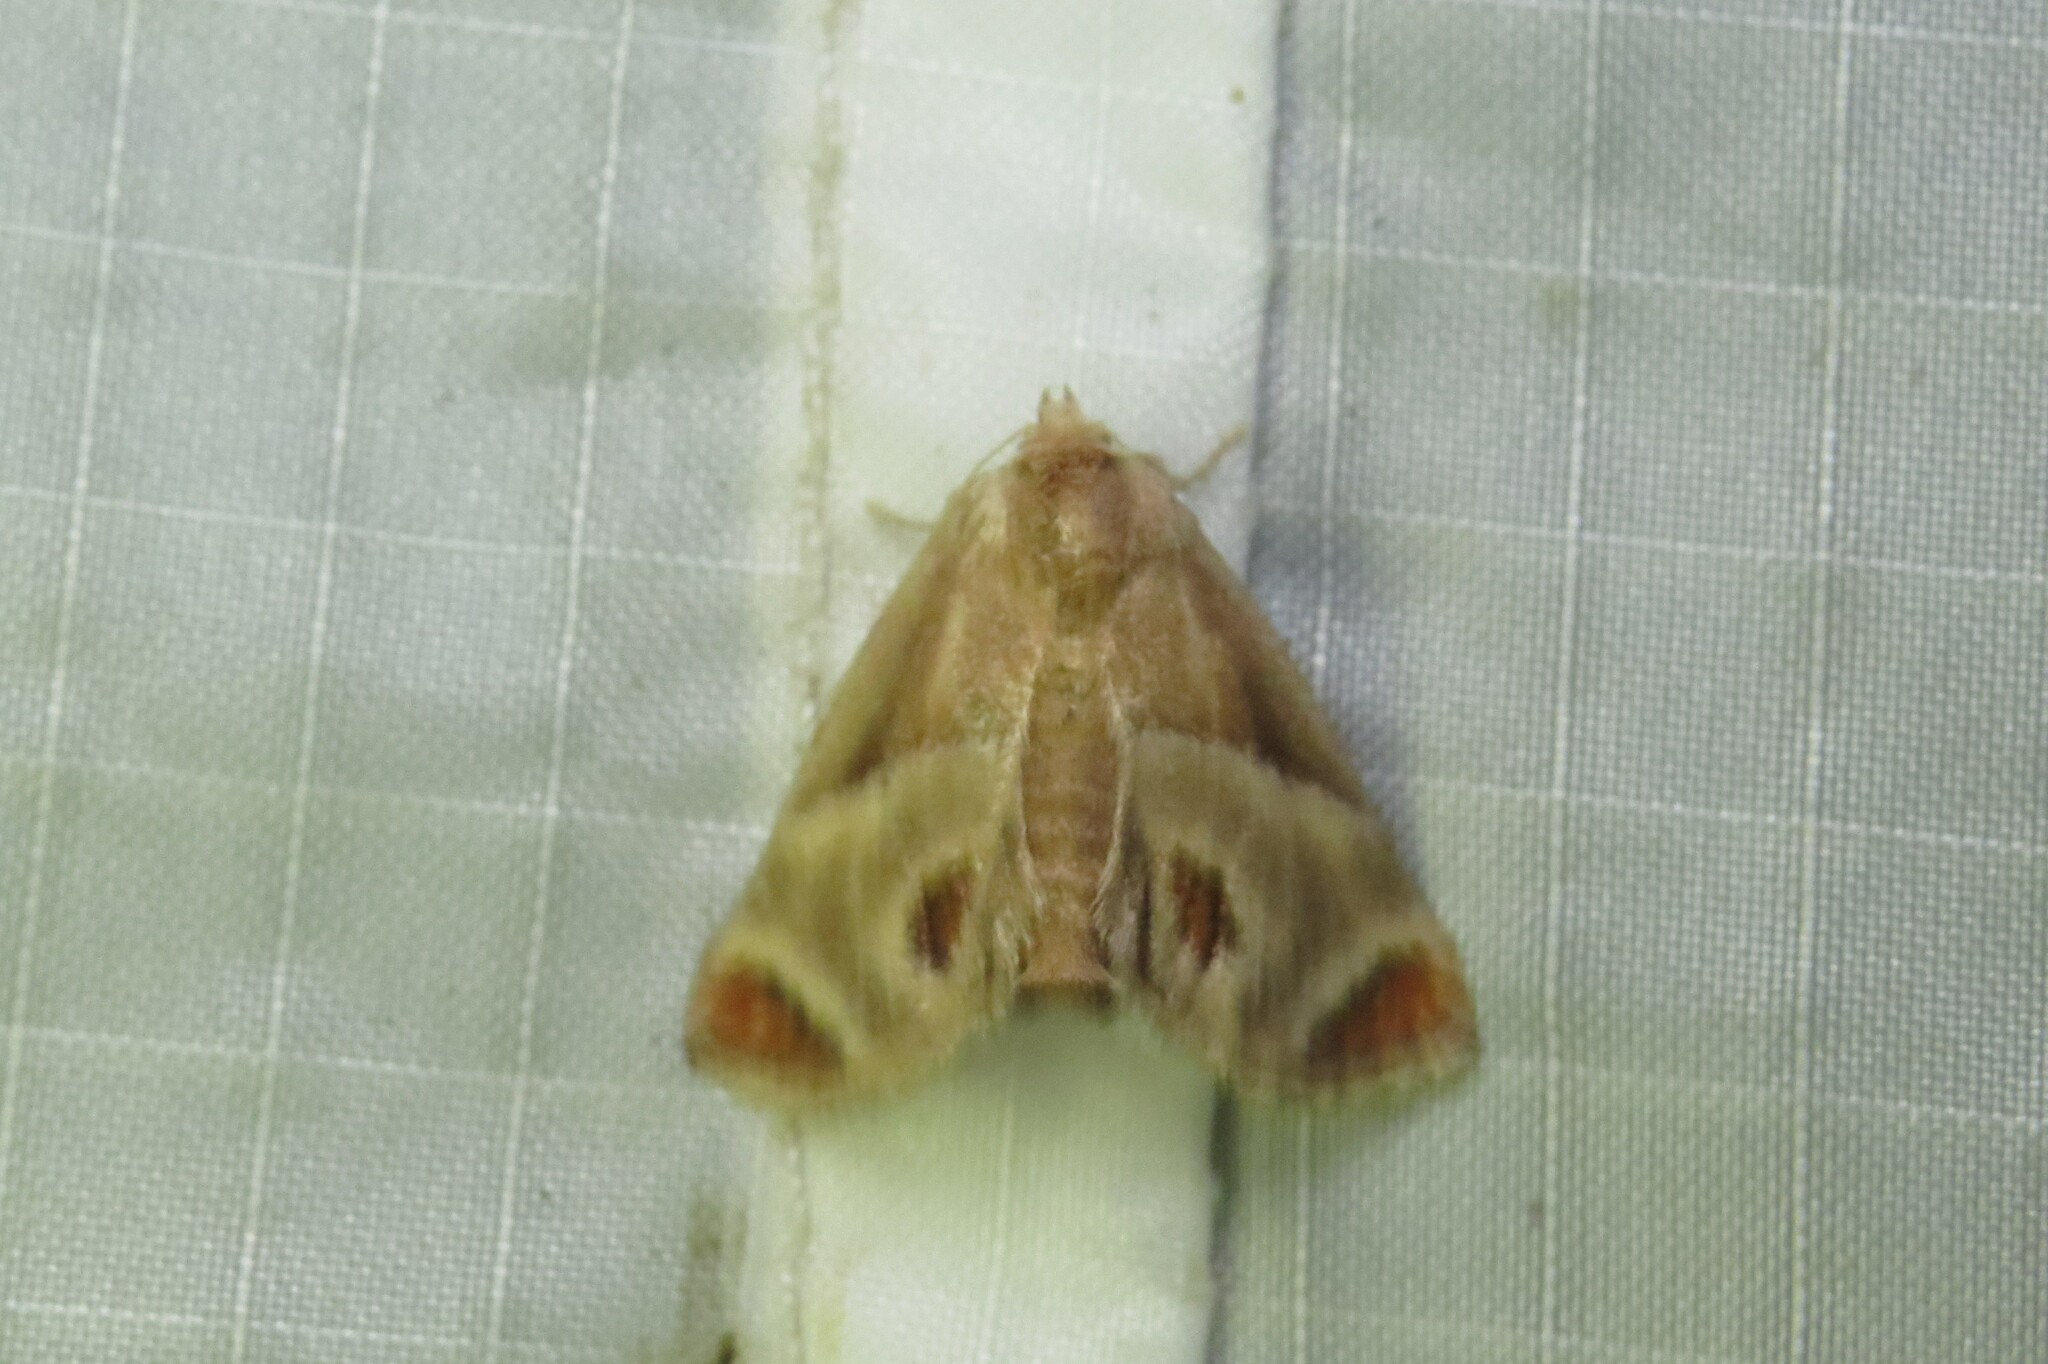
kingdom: Animalia
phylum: Arthropoda
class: Insecta
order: Lepidoptera
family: Limacodidae
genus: Apoda
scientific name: Apoda biguttata
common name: Shagreened slug moth
